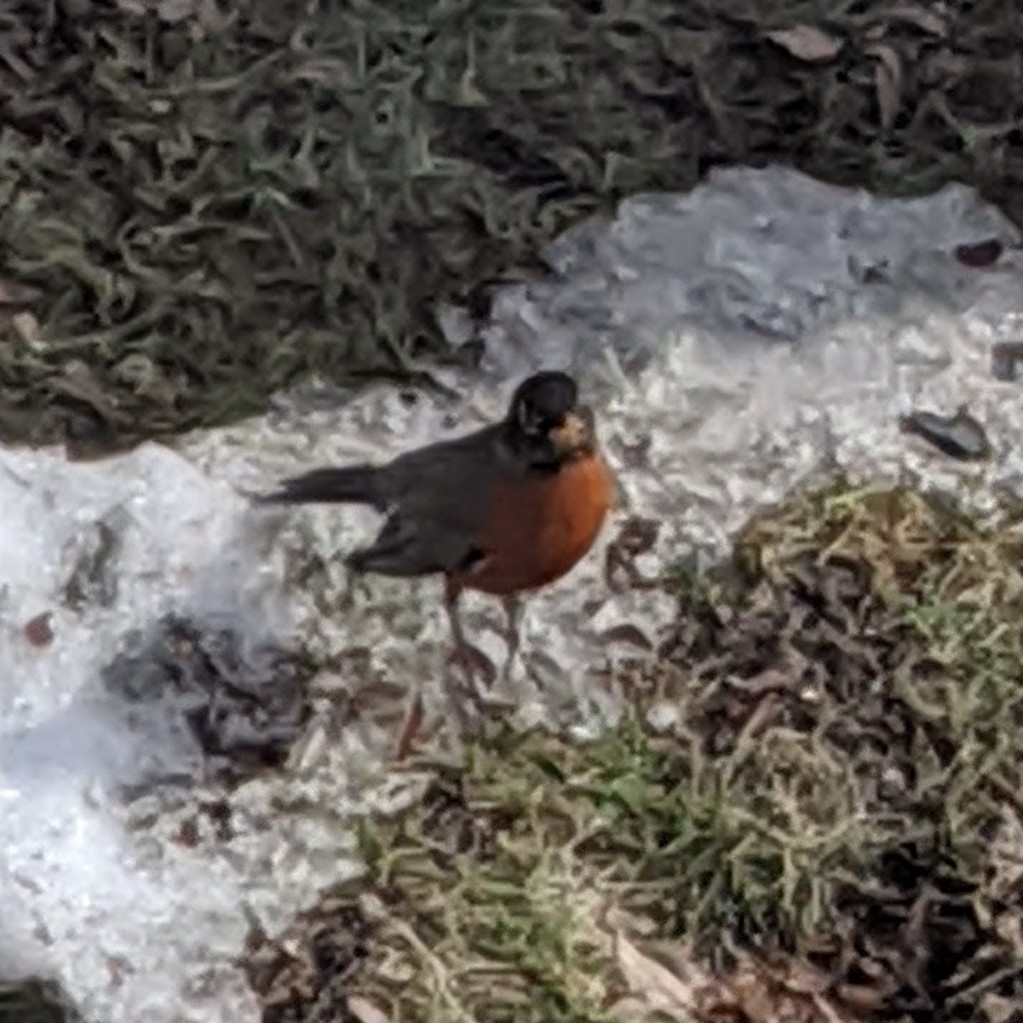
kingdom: Animalia
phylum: Chordata
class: Aves
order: Passeriformes
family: Turdidae
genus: Turdus
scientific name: Turdus migratorius
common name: American robin
